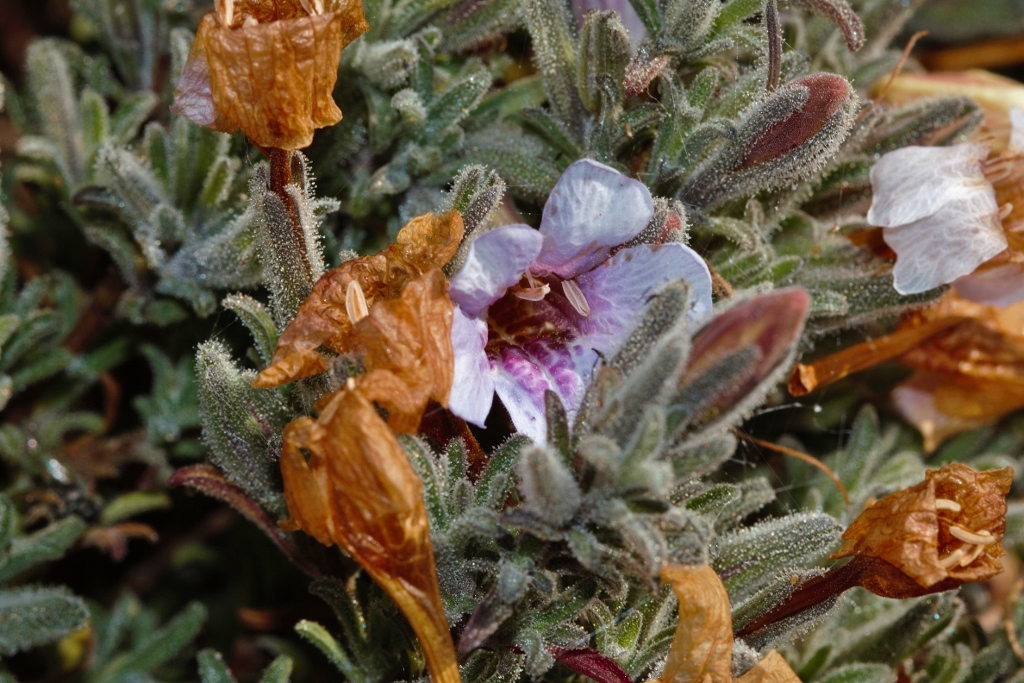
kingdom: Plantae
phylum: Tracheophyta
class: Magnoliopsida
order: Lamiales
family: Acanthaceae
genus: Strobilanthopsis
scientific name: Strobilanthopsis linifolia
